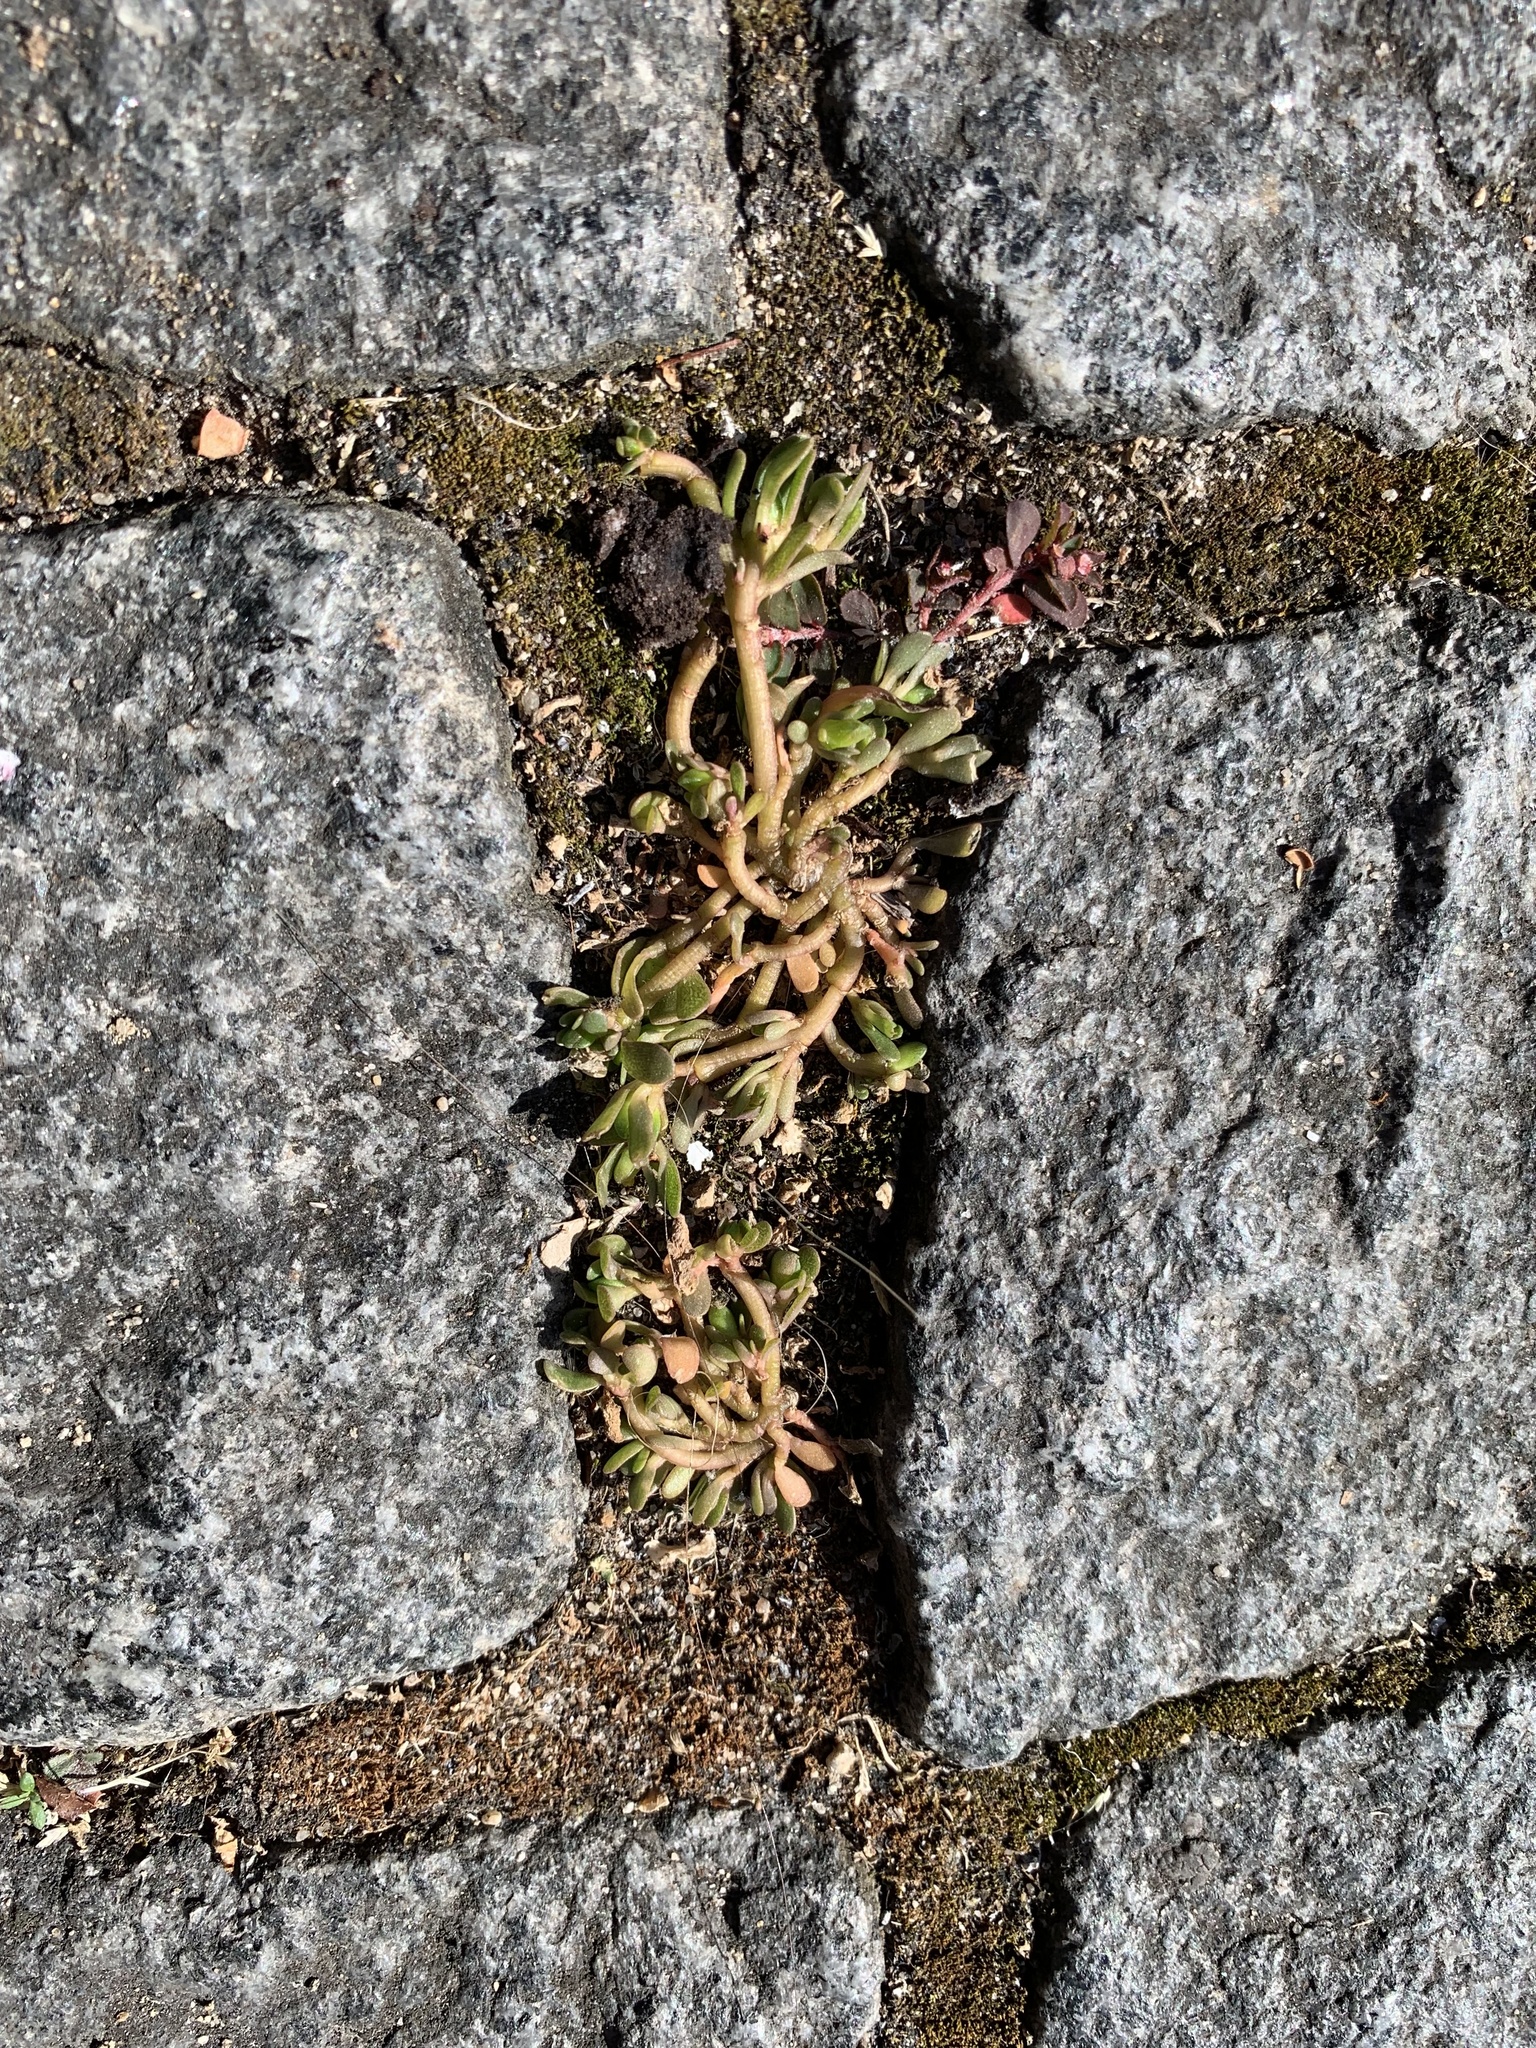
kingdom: Plantae
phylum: Tracheophyta
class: Magnoliopsida
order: Caryophyllales
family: Portulacaceae
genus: Portulaca
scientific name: Portulaca oleracea
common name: Common purslane
